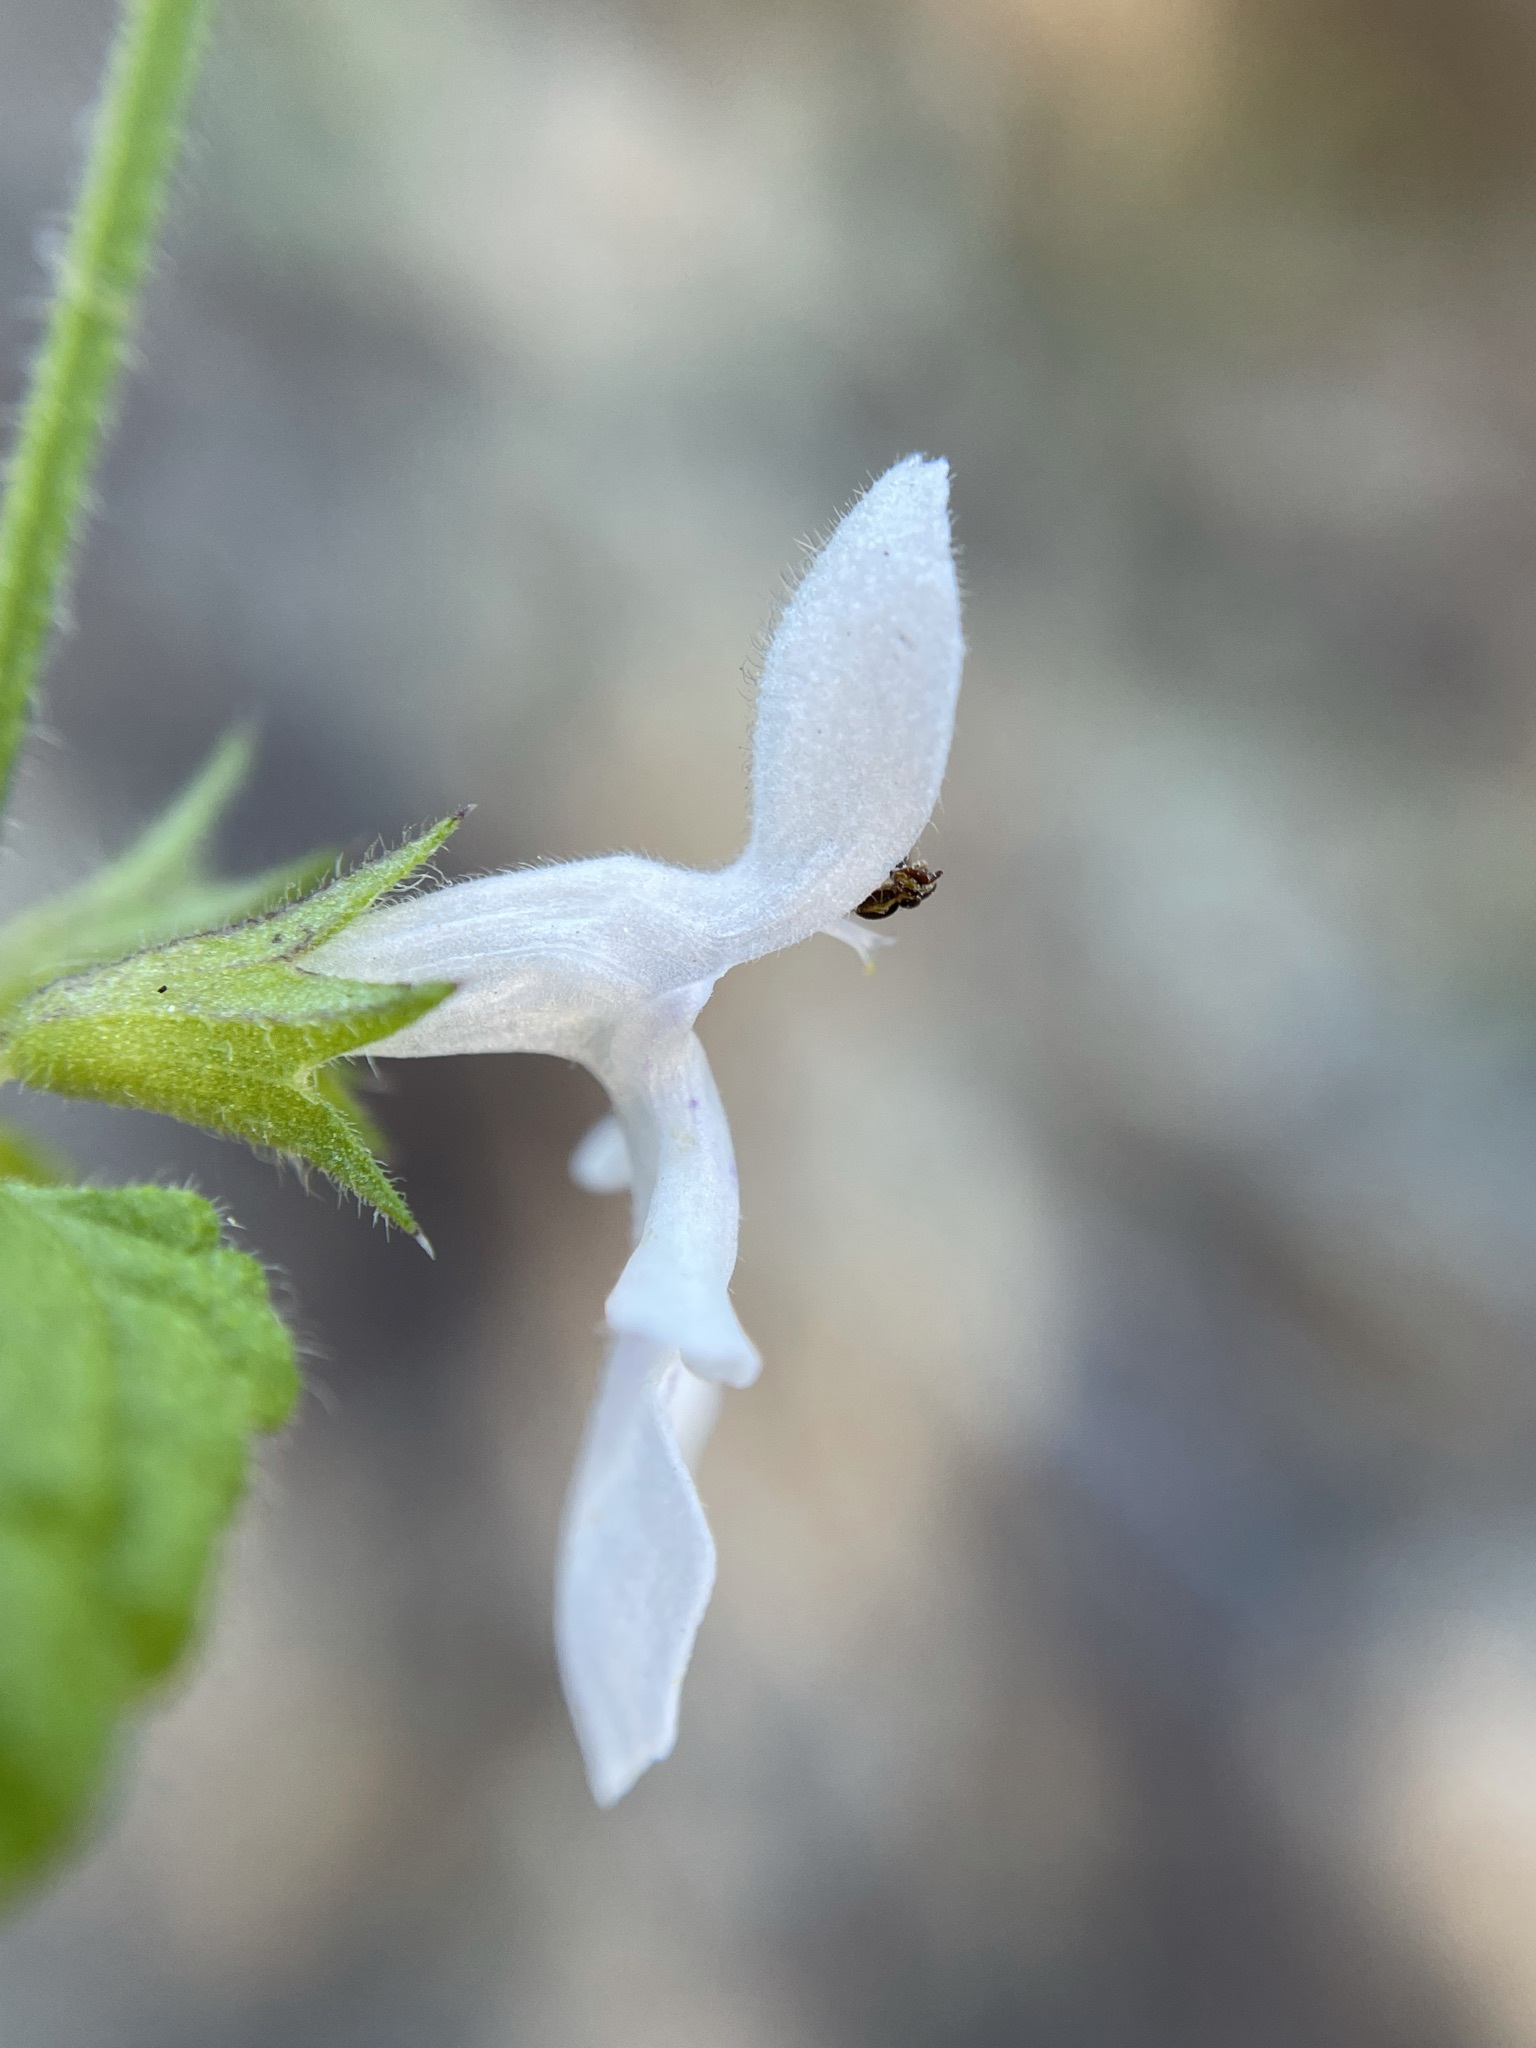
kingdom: Plantae
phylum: Tracheophyta
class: Magnoliopsida
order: Lamiales
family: Lamiaceae
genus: Stachys
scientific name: Stachys aethiopica
